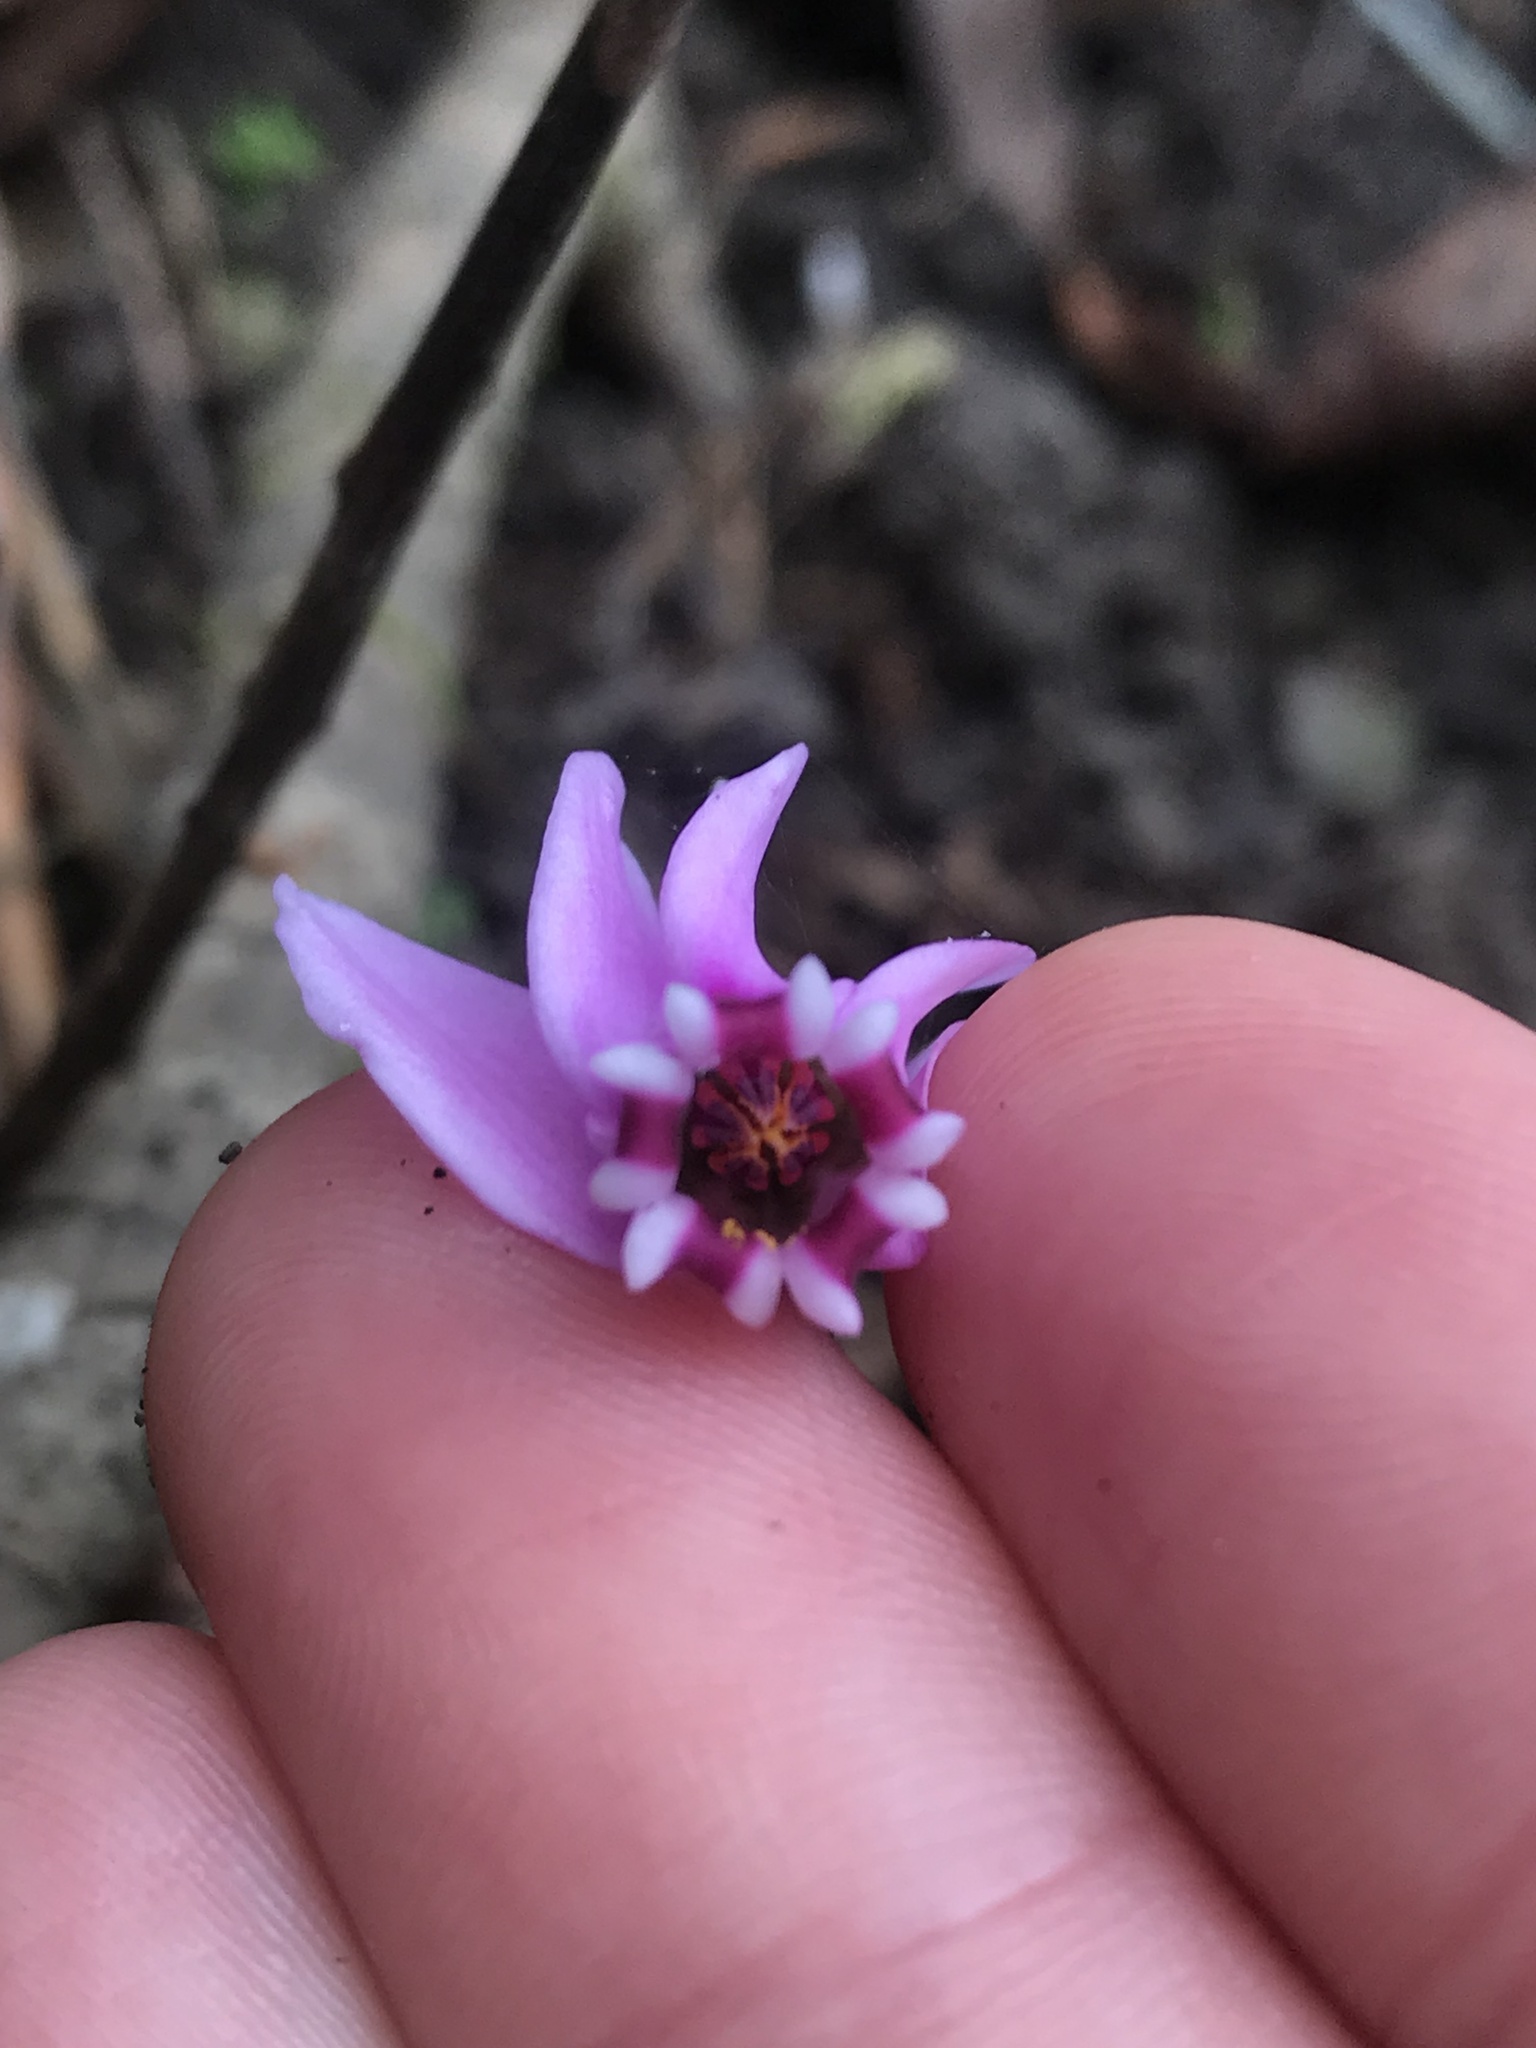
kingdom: Plantae
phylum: Tracheophyta
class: Magnoliopsida
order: Ericales
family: Primulaceae
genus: Cyclamen
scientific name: Cyclamen hederifolium
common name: Sowbread
